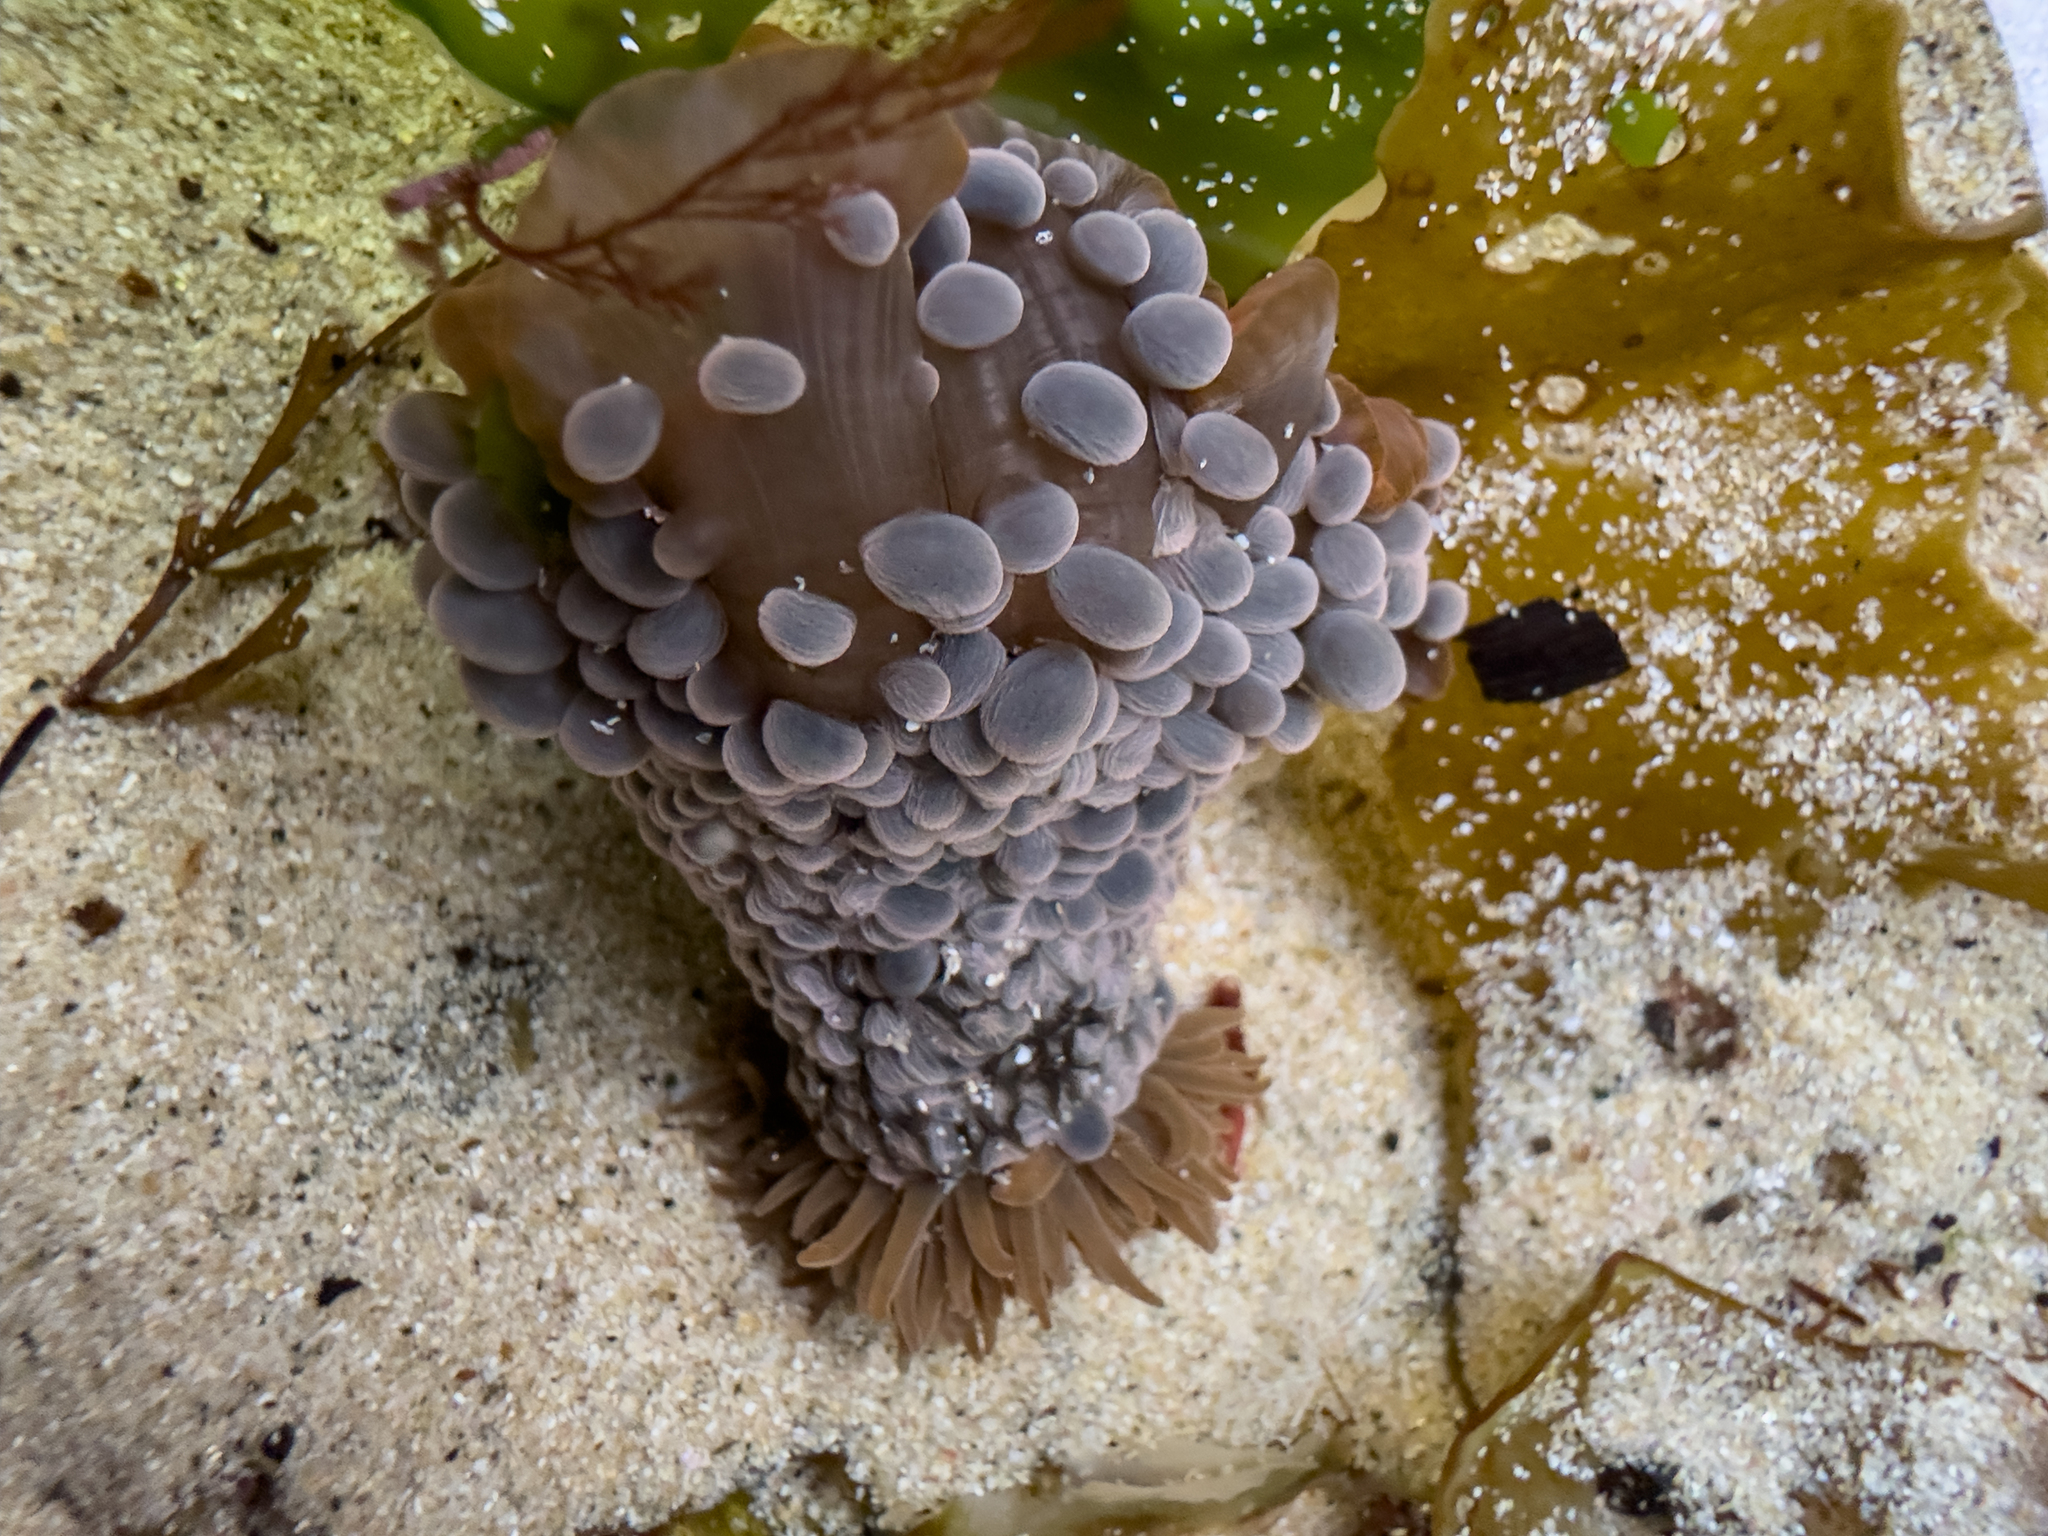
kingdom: Animalia
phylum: Cnidaria
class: Anthozoa
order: Actiniaria
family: Actiniidae
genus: Phlyctenactis
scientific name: Phlyctenactis tuberculosa
